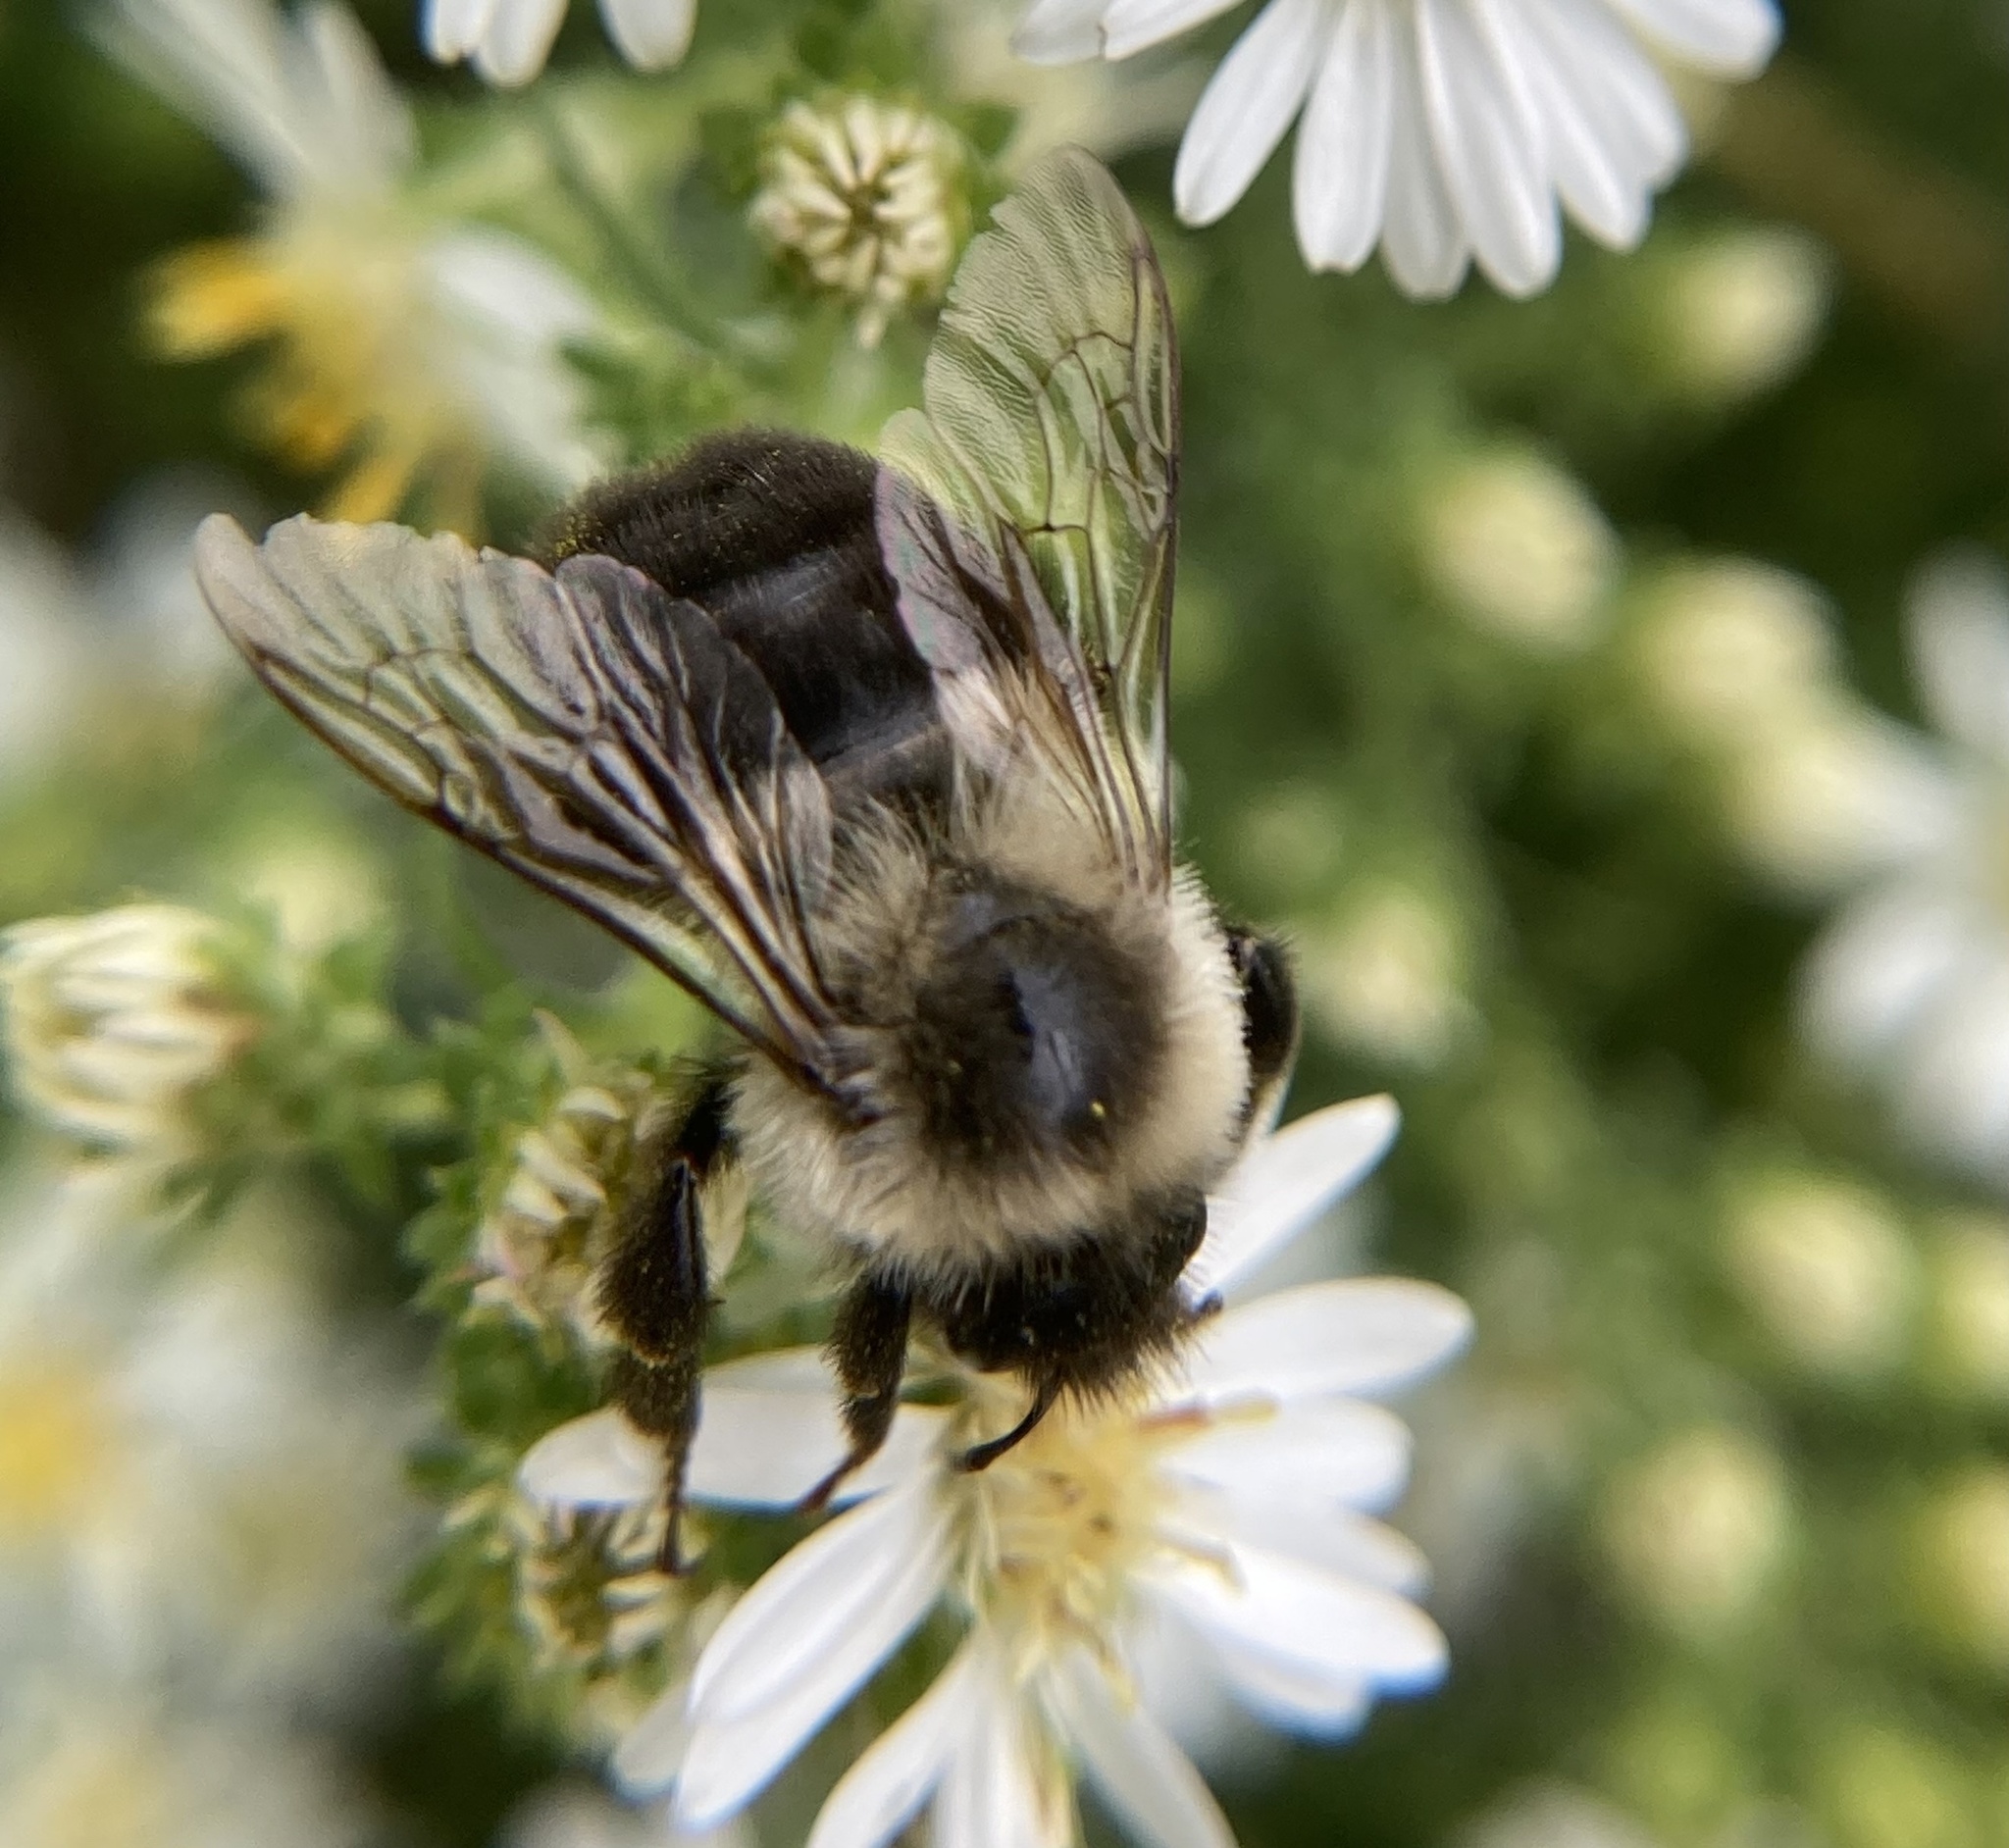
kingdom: Animalia
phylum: Arthropoda
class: Insecta
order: Hymenoptera
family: Apidae
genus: Bombus
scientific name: Bombus impatiens
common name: Common eastern bumble bee
